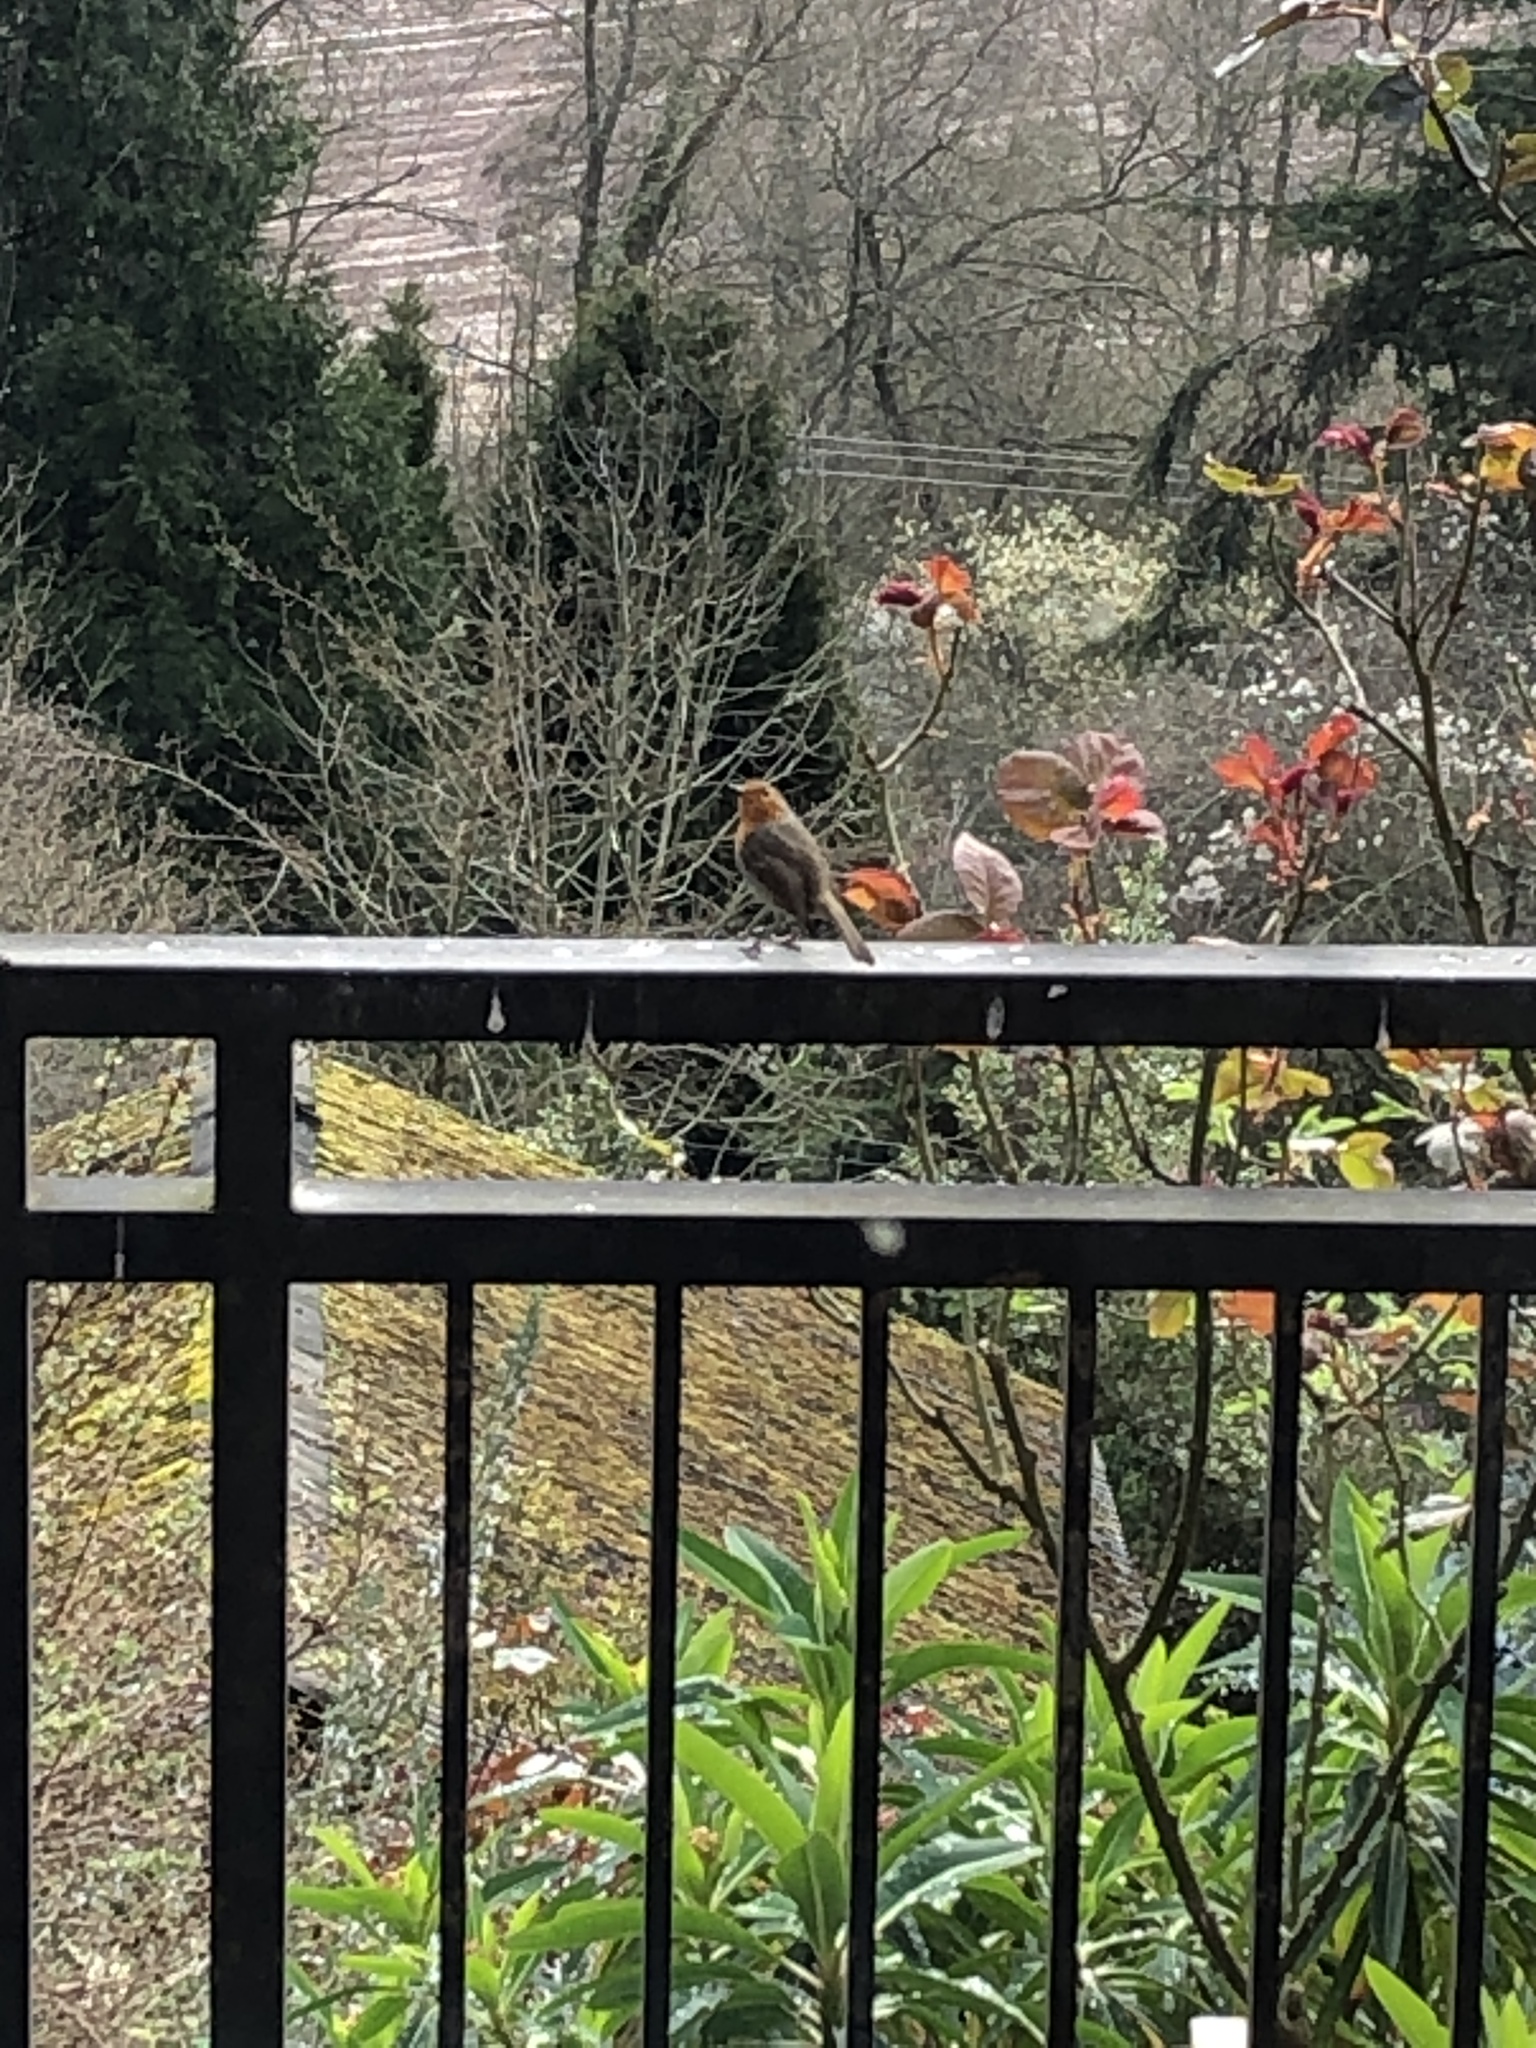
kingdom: Animalia
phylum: Chordata
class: Aves
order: Passeriformes
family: Muscicapidae
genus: Erithacus
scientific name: Erithacus rubecula
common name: European robin
